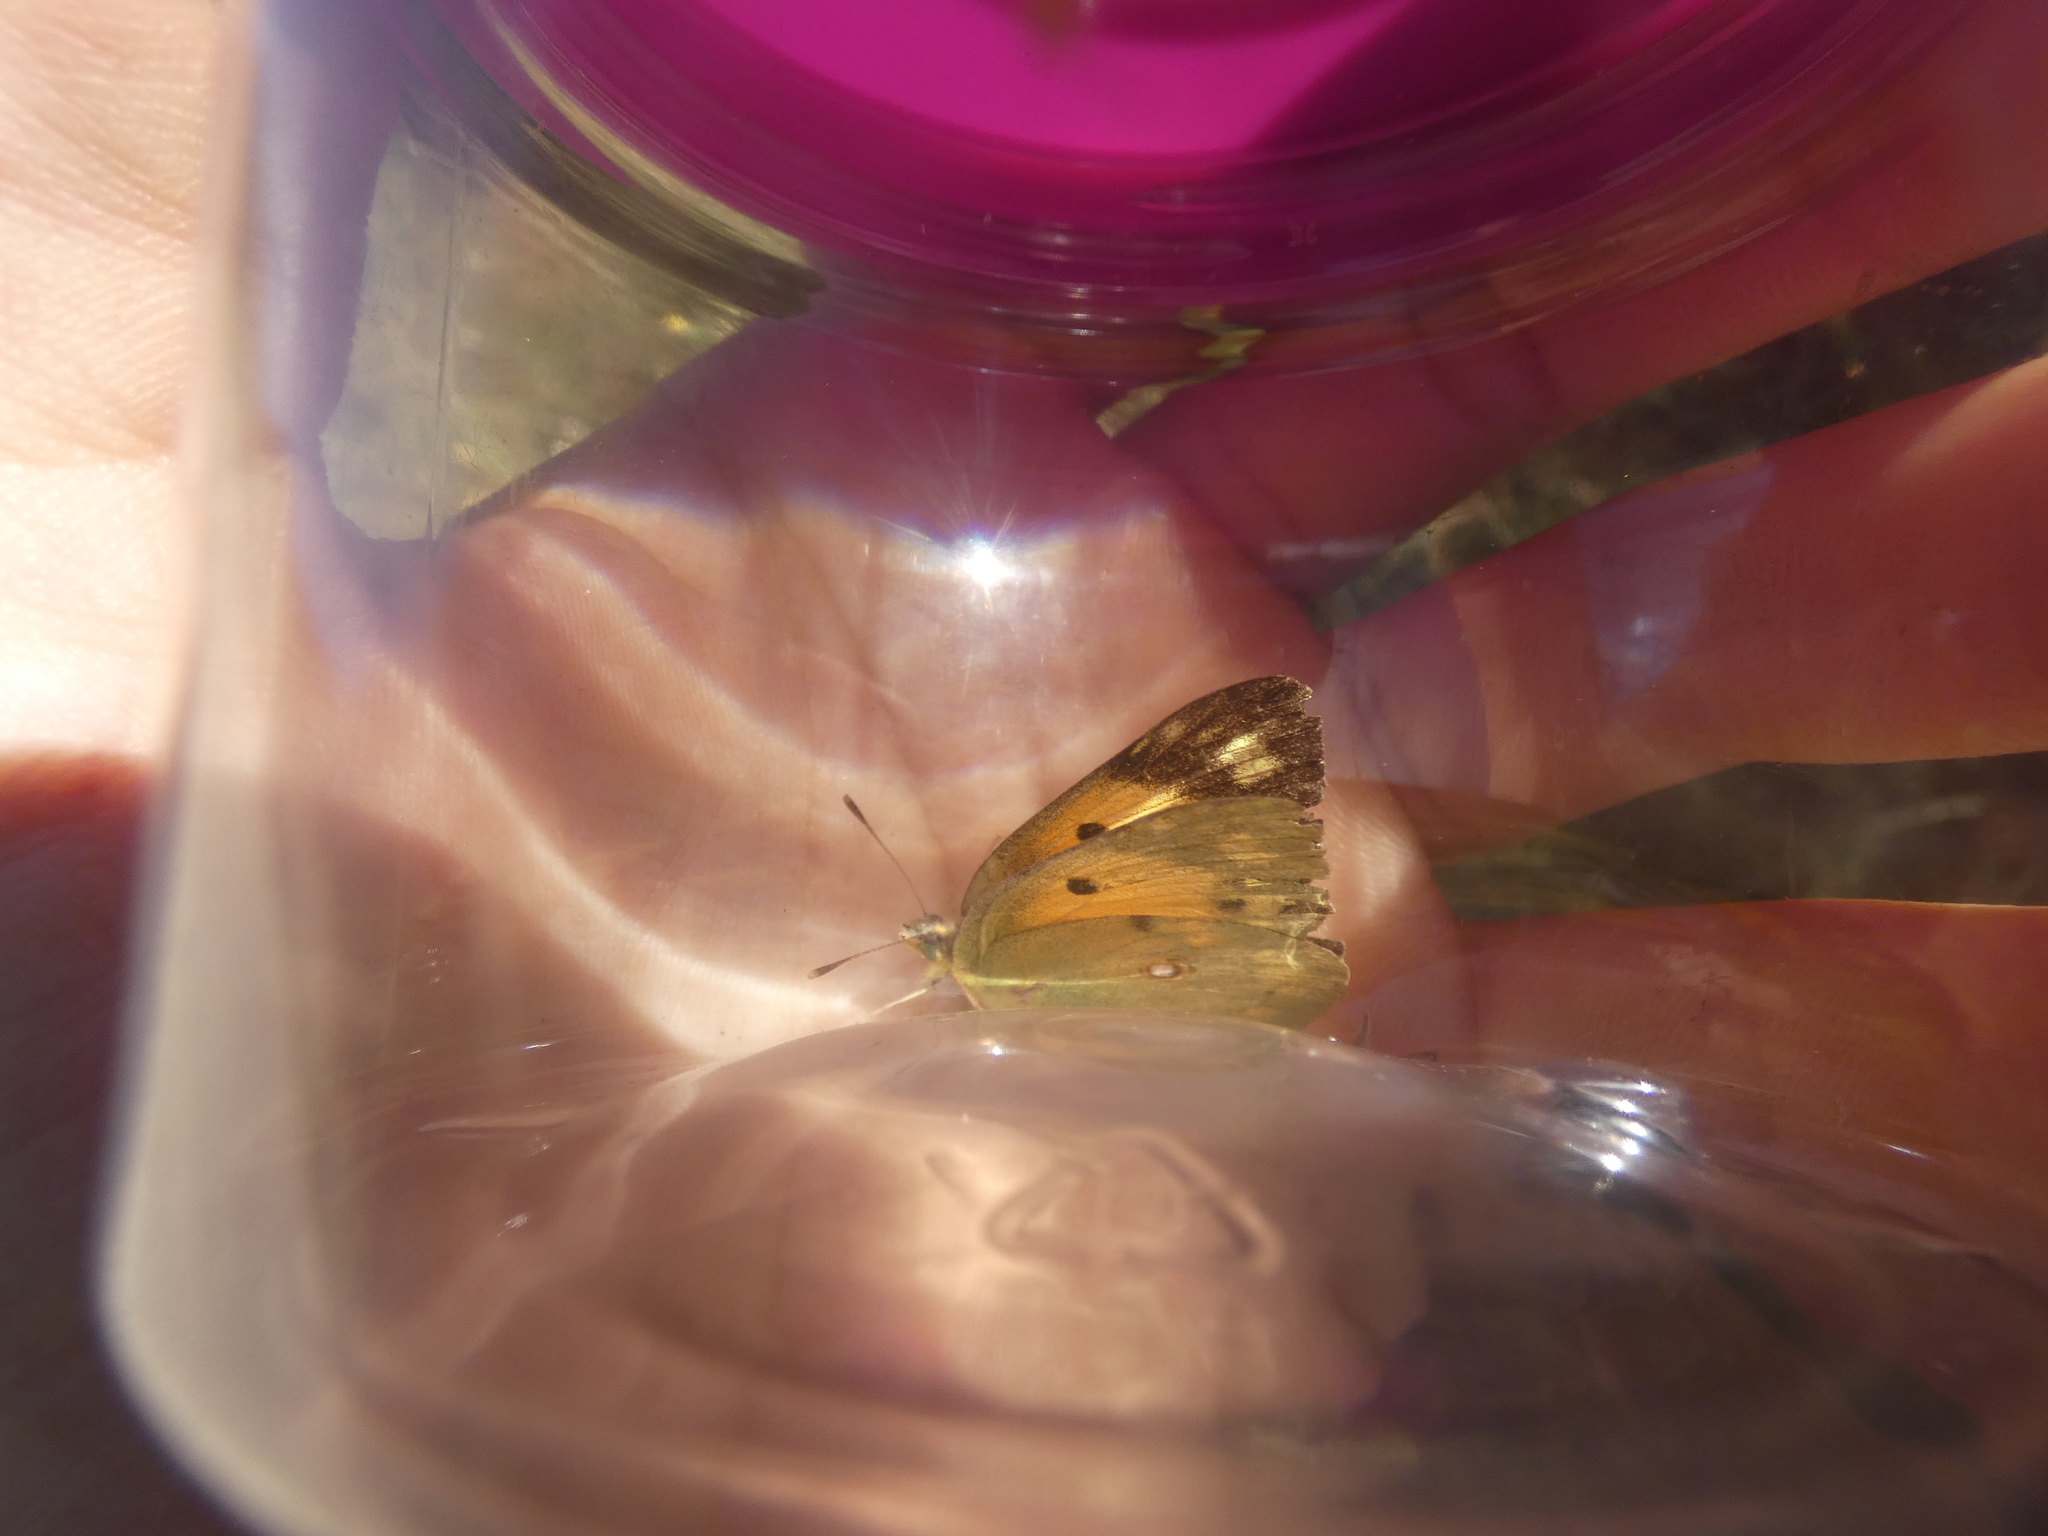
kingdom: Animalia
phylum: Arthropoda
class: Insecta
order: Lepidoptera
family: Pieridae
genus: Colias
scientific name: Colias croceus
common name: Clouded yellow
